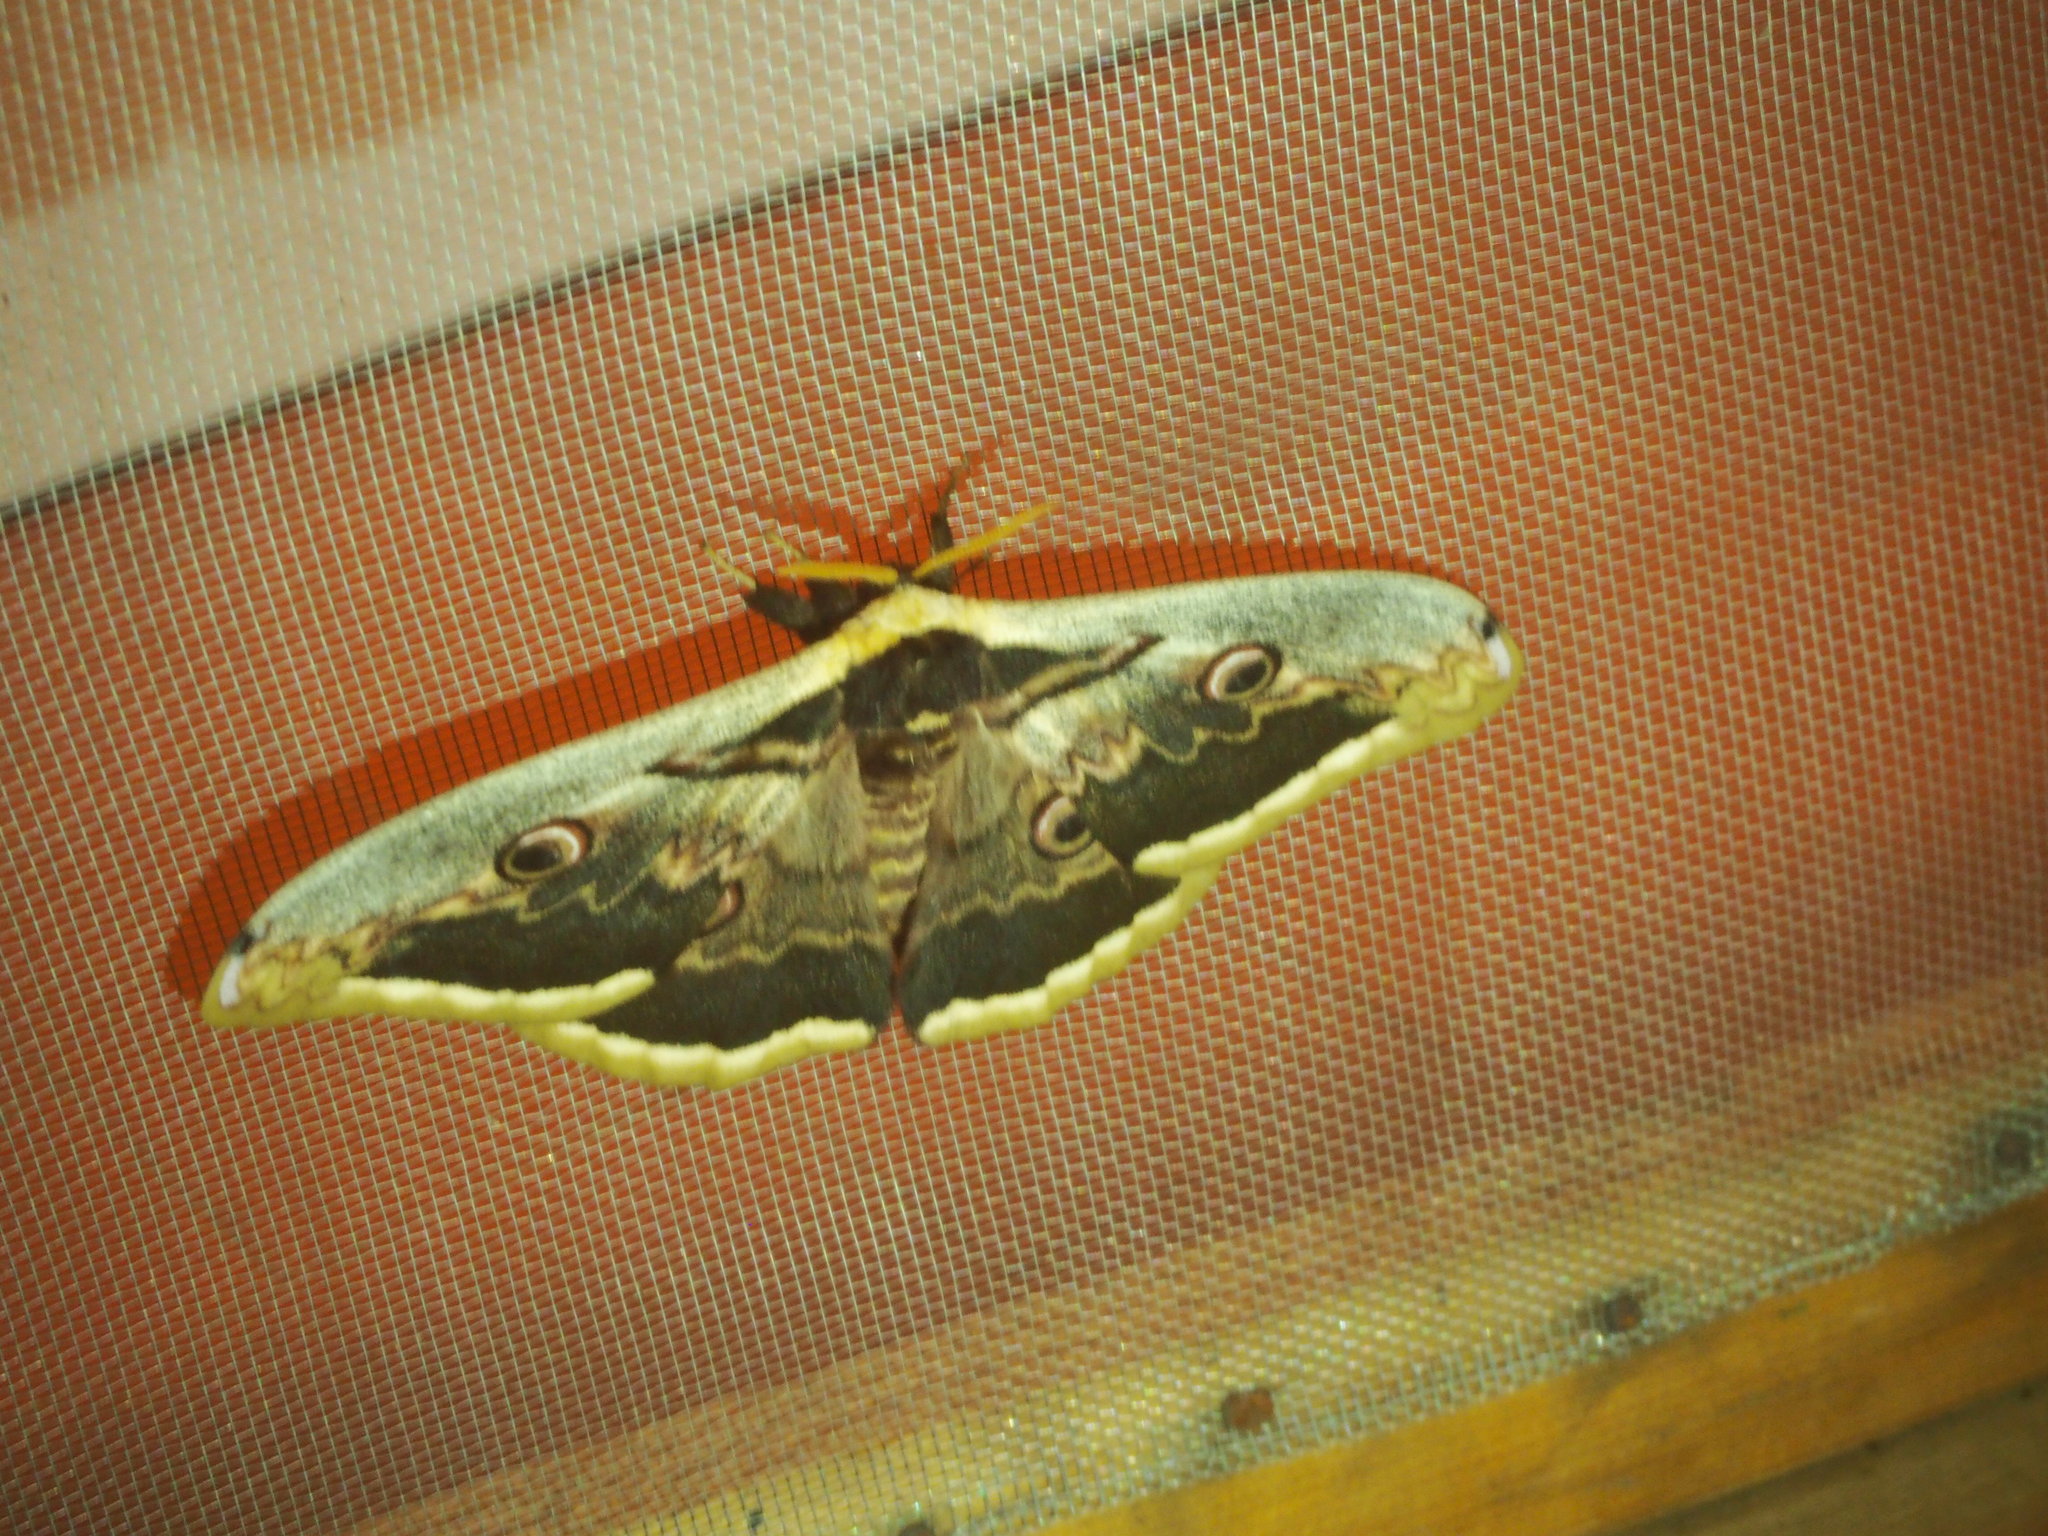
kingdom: Animalia
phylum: Arthropoda
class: Insecta
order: Lepidoptera
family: Saturniidae
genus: Saturnia
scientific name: Saturnia pyri
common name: Great peacock moth
